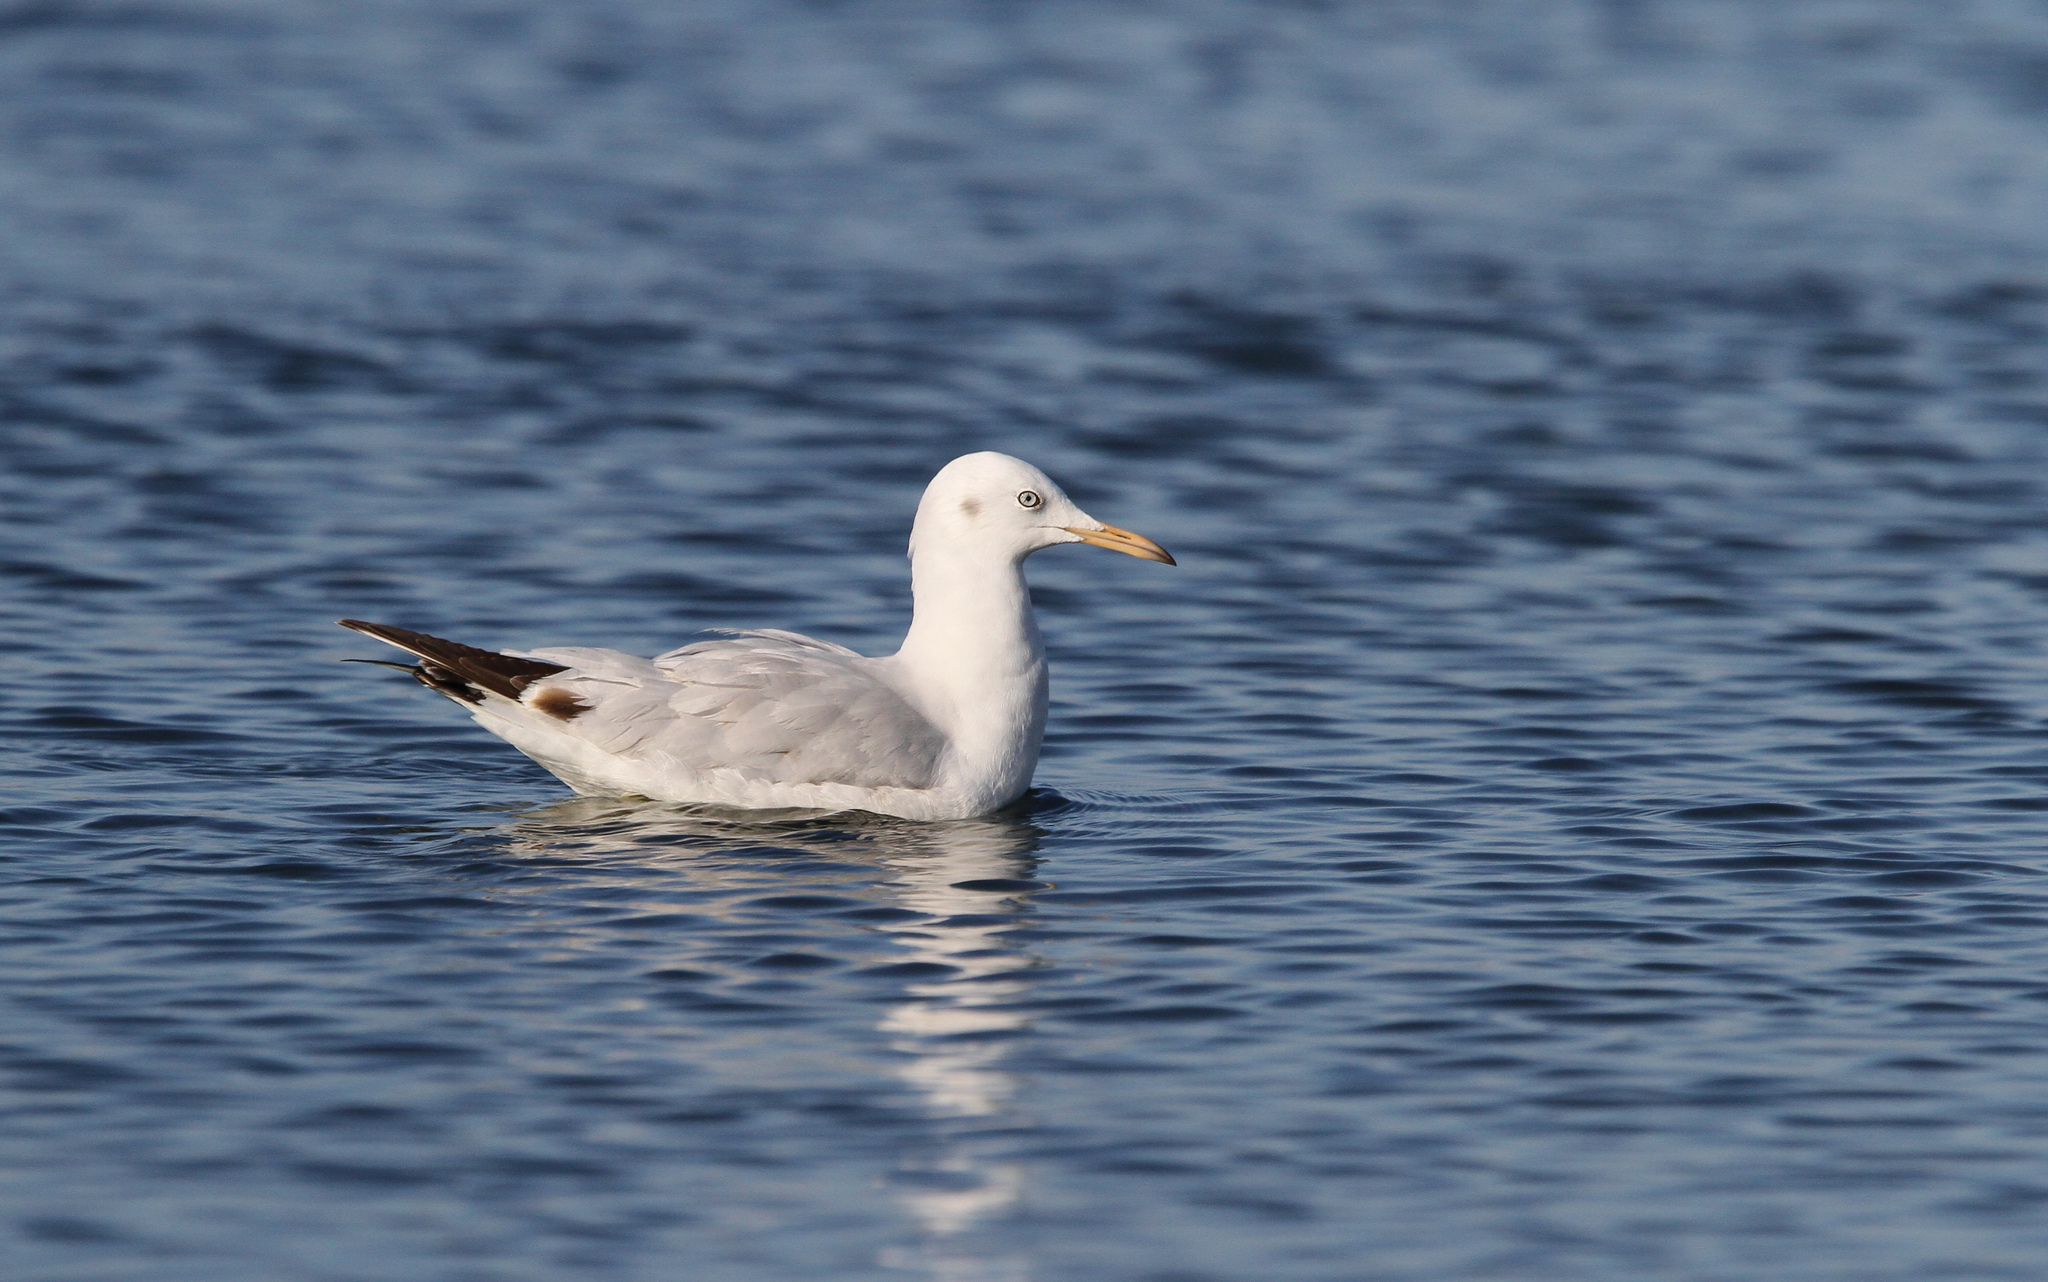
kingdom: Animalia
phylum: Chordata
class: Aves
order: Charadriiformes
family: Laridae
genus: Chroicocephalus
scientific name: Chroicocephalus genei
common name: Slender-billed gull
